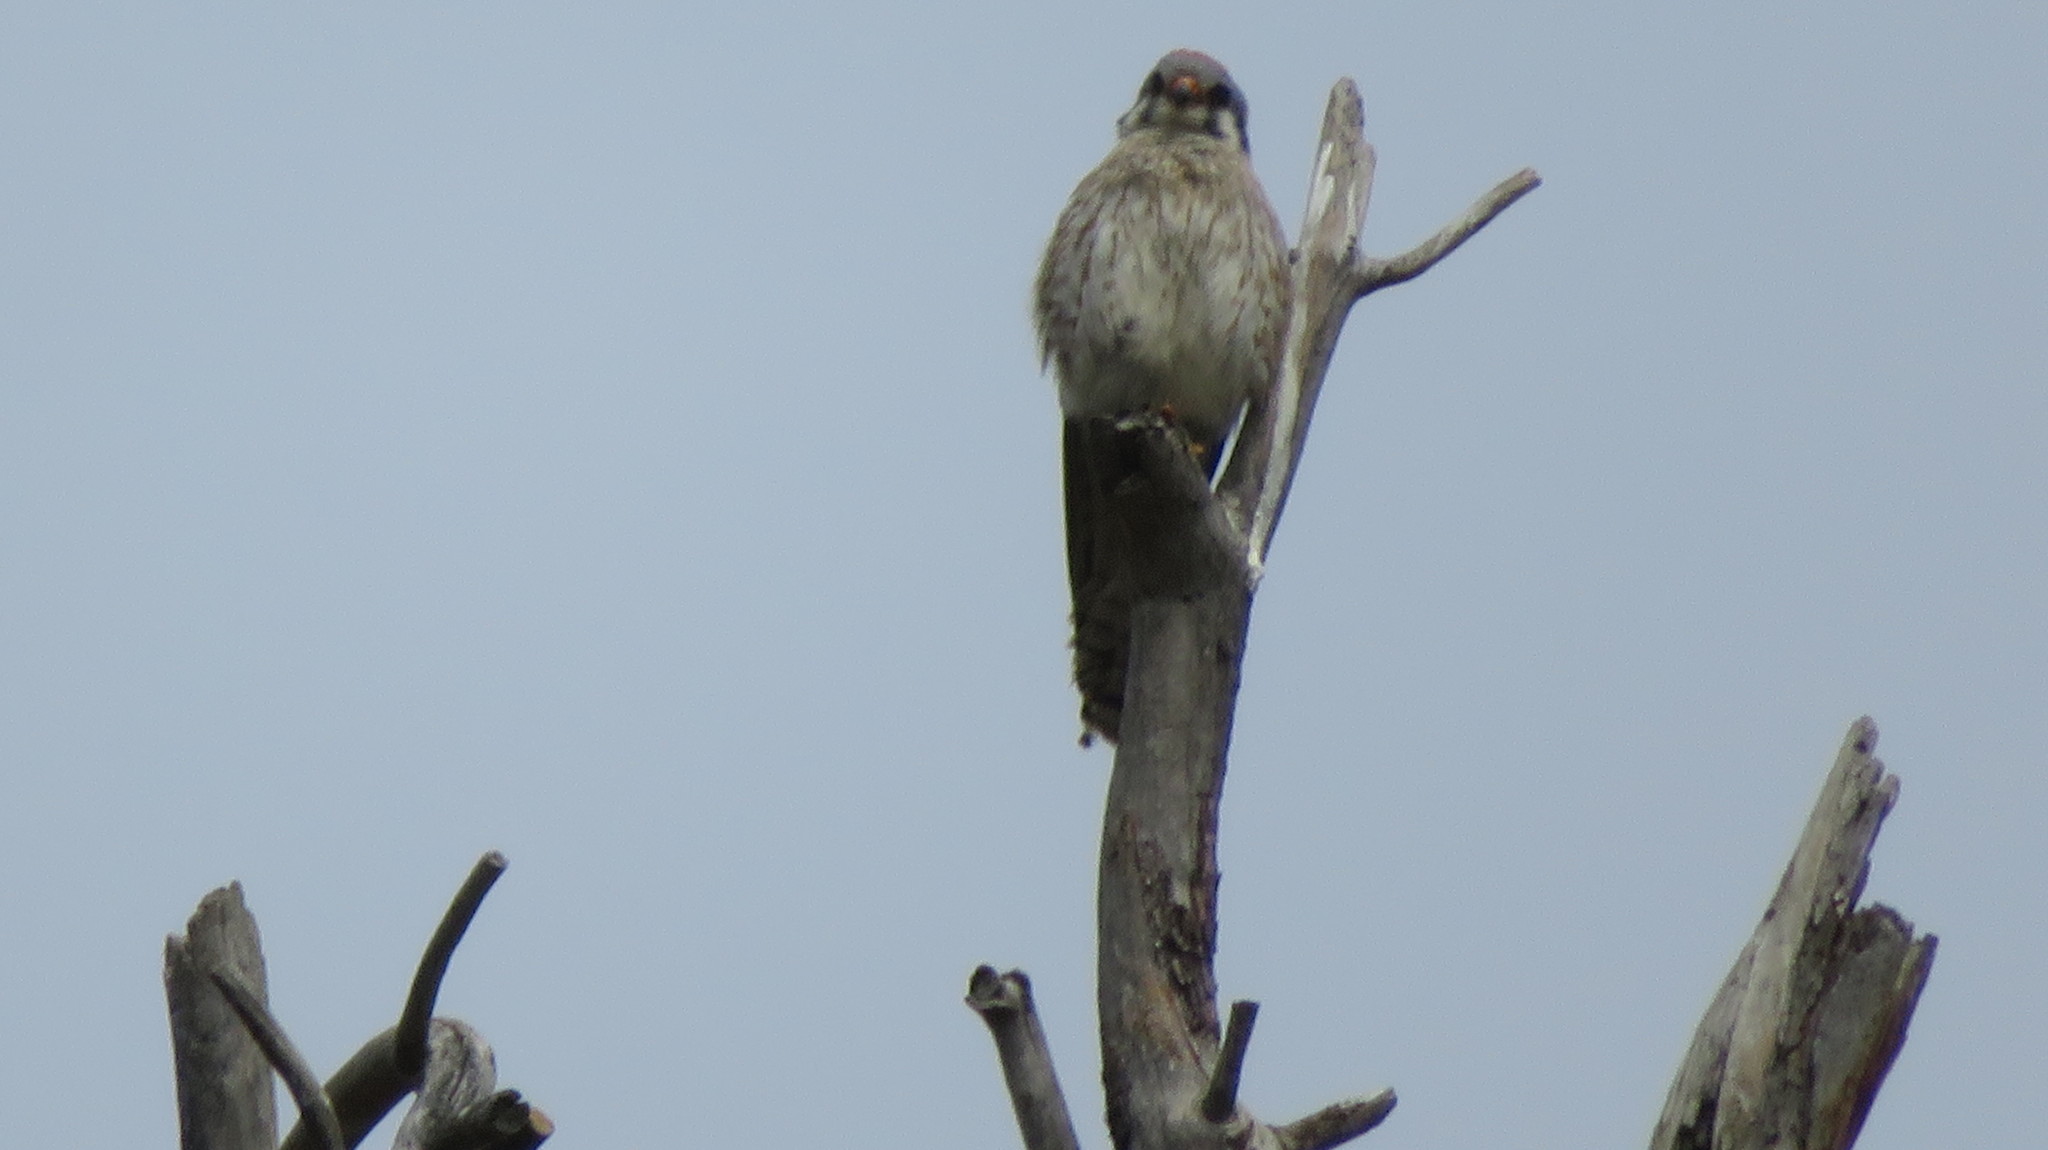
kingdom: Animalia
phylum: Chordata
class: Aves
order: Falconiformes
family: Falconidae
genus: Falco
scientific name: Falco sparverius
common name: American kestrel
